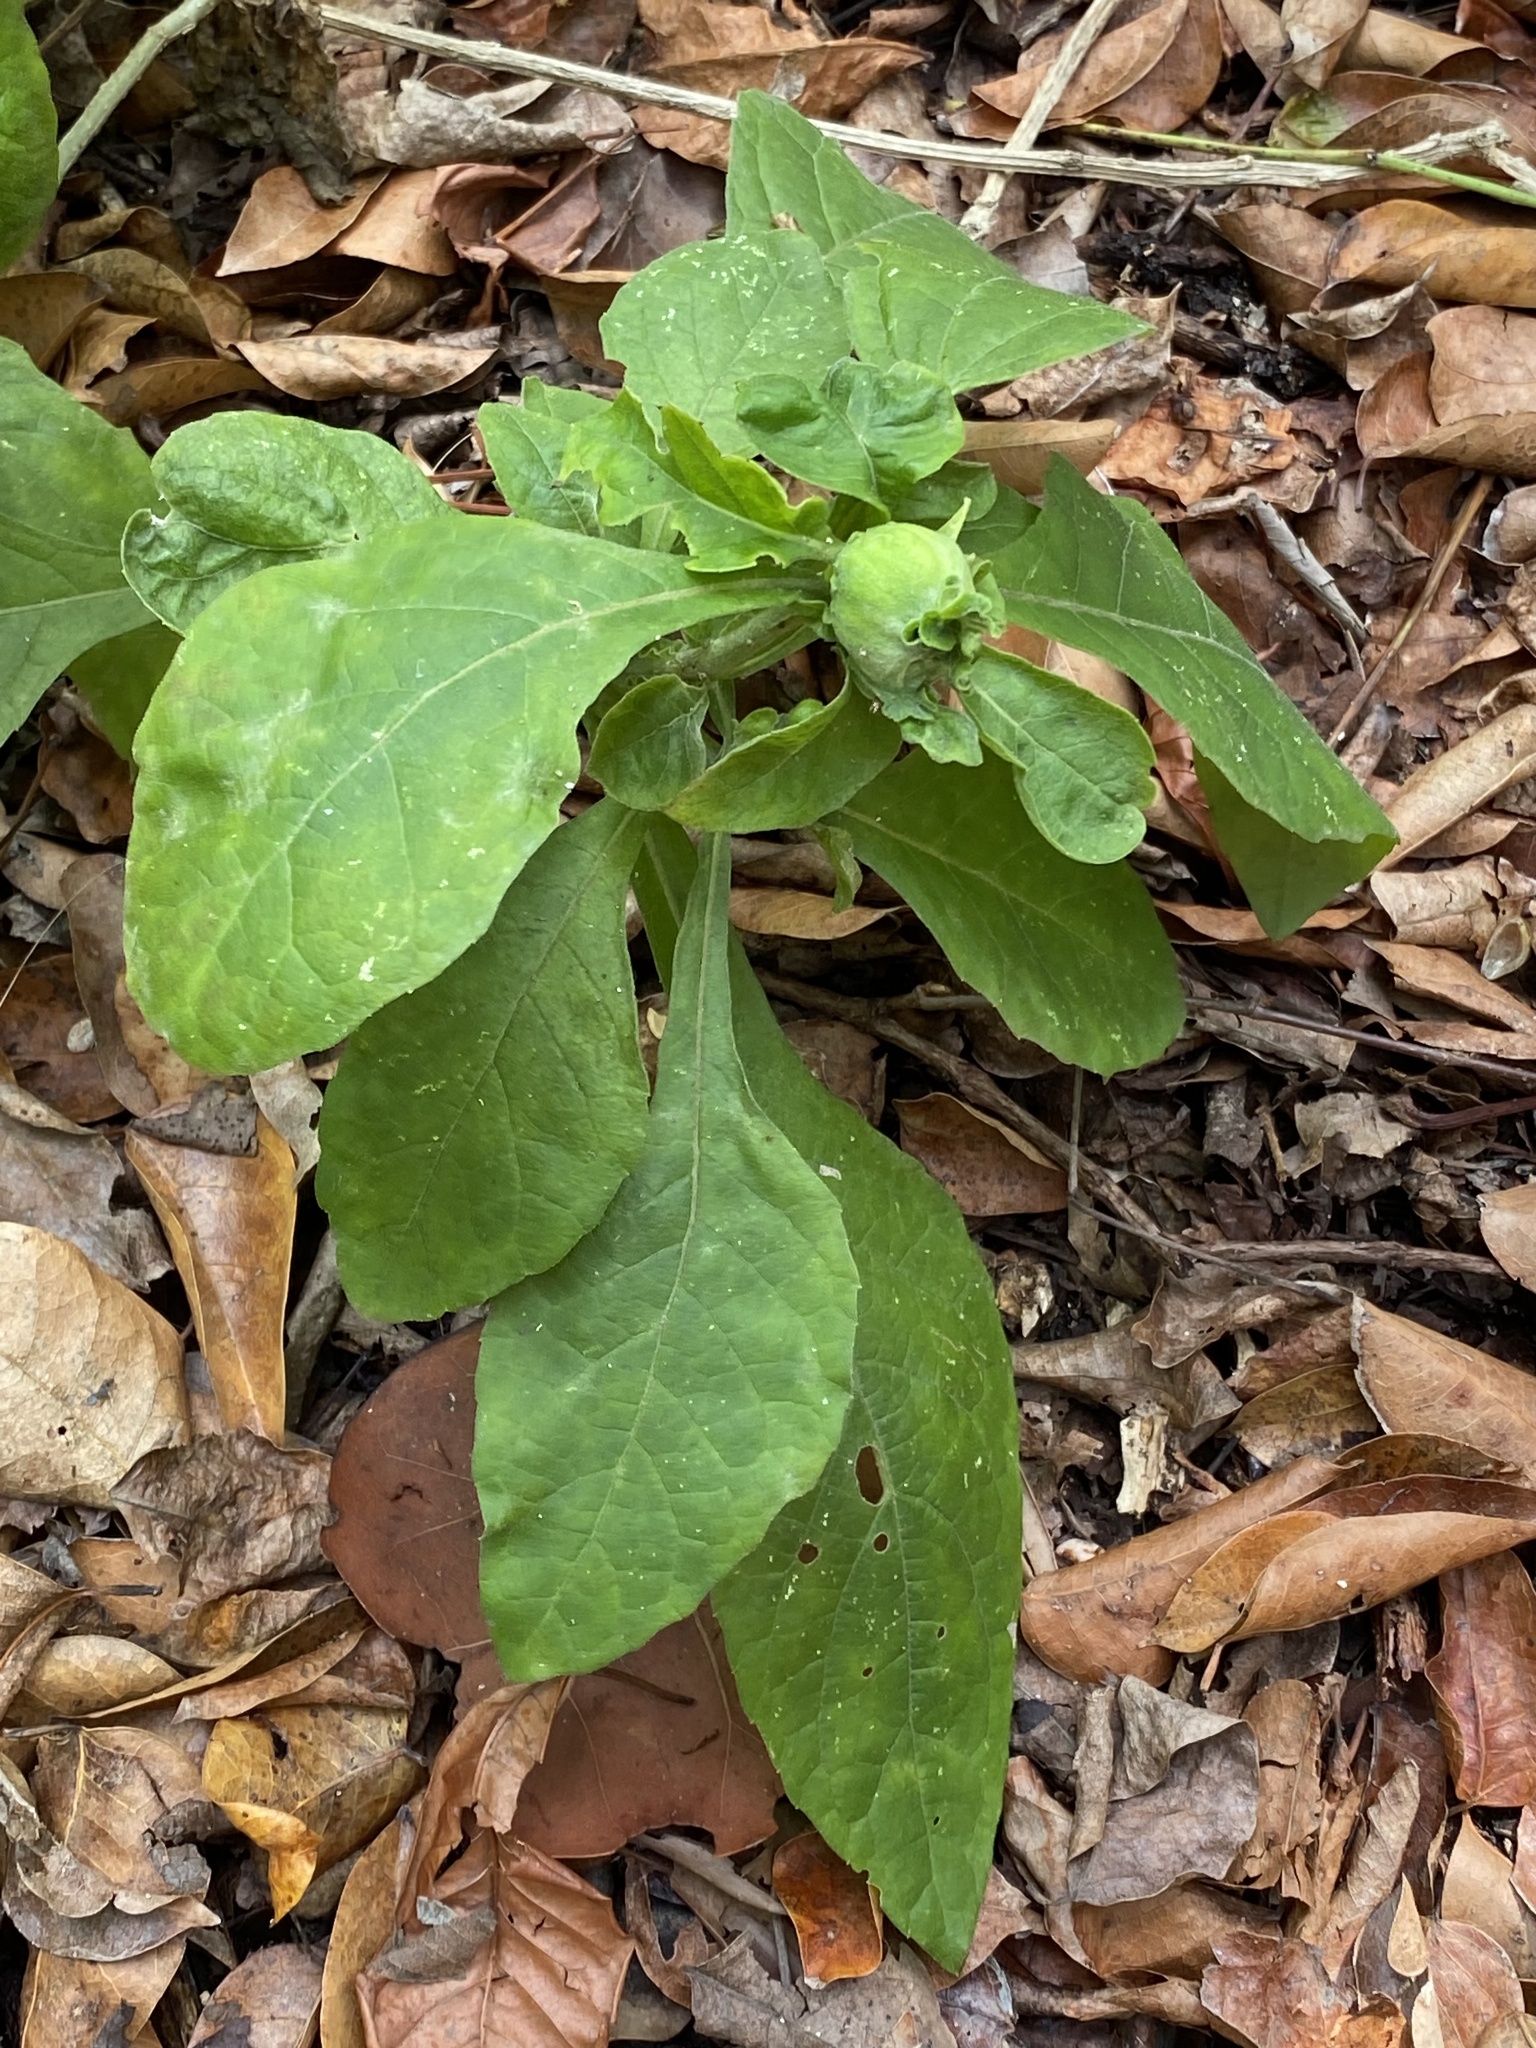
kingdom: Plantae
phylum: Tracheophyta
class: Magnoliopsida
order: Asterales
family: Asteraceae
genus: Verbesina
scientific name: Verbesina virginica
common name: Frostweed
